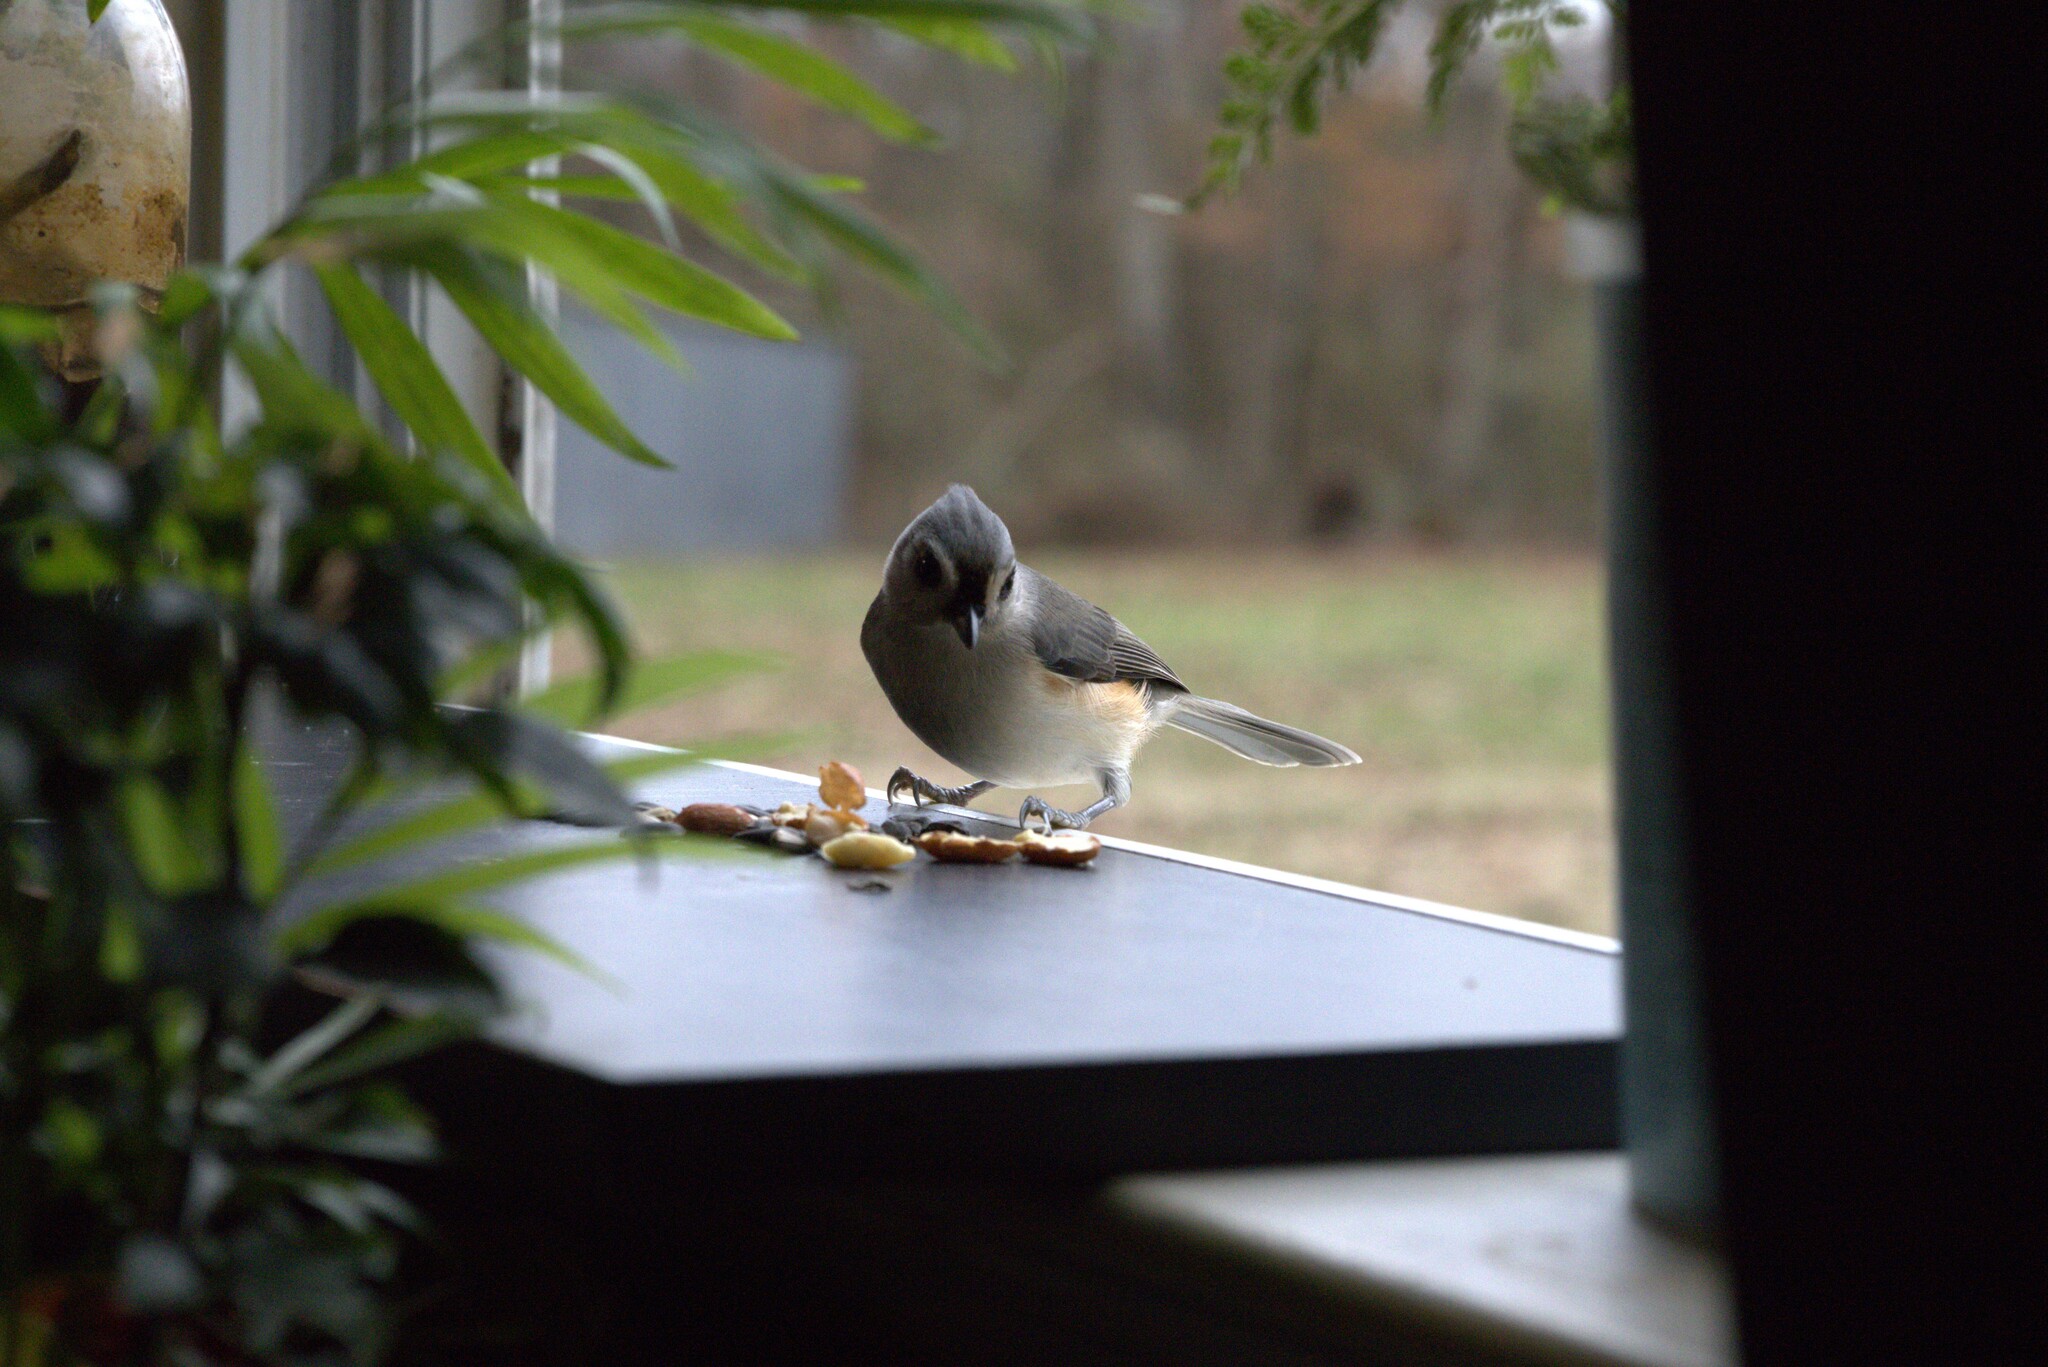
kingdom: Animalia
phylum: Chordata
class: Aves
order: Passeriformes
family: Paridae
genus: Baeolophus
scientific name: Baeolophus bicolor
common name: Tufted titmouse
